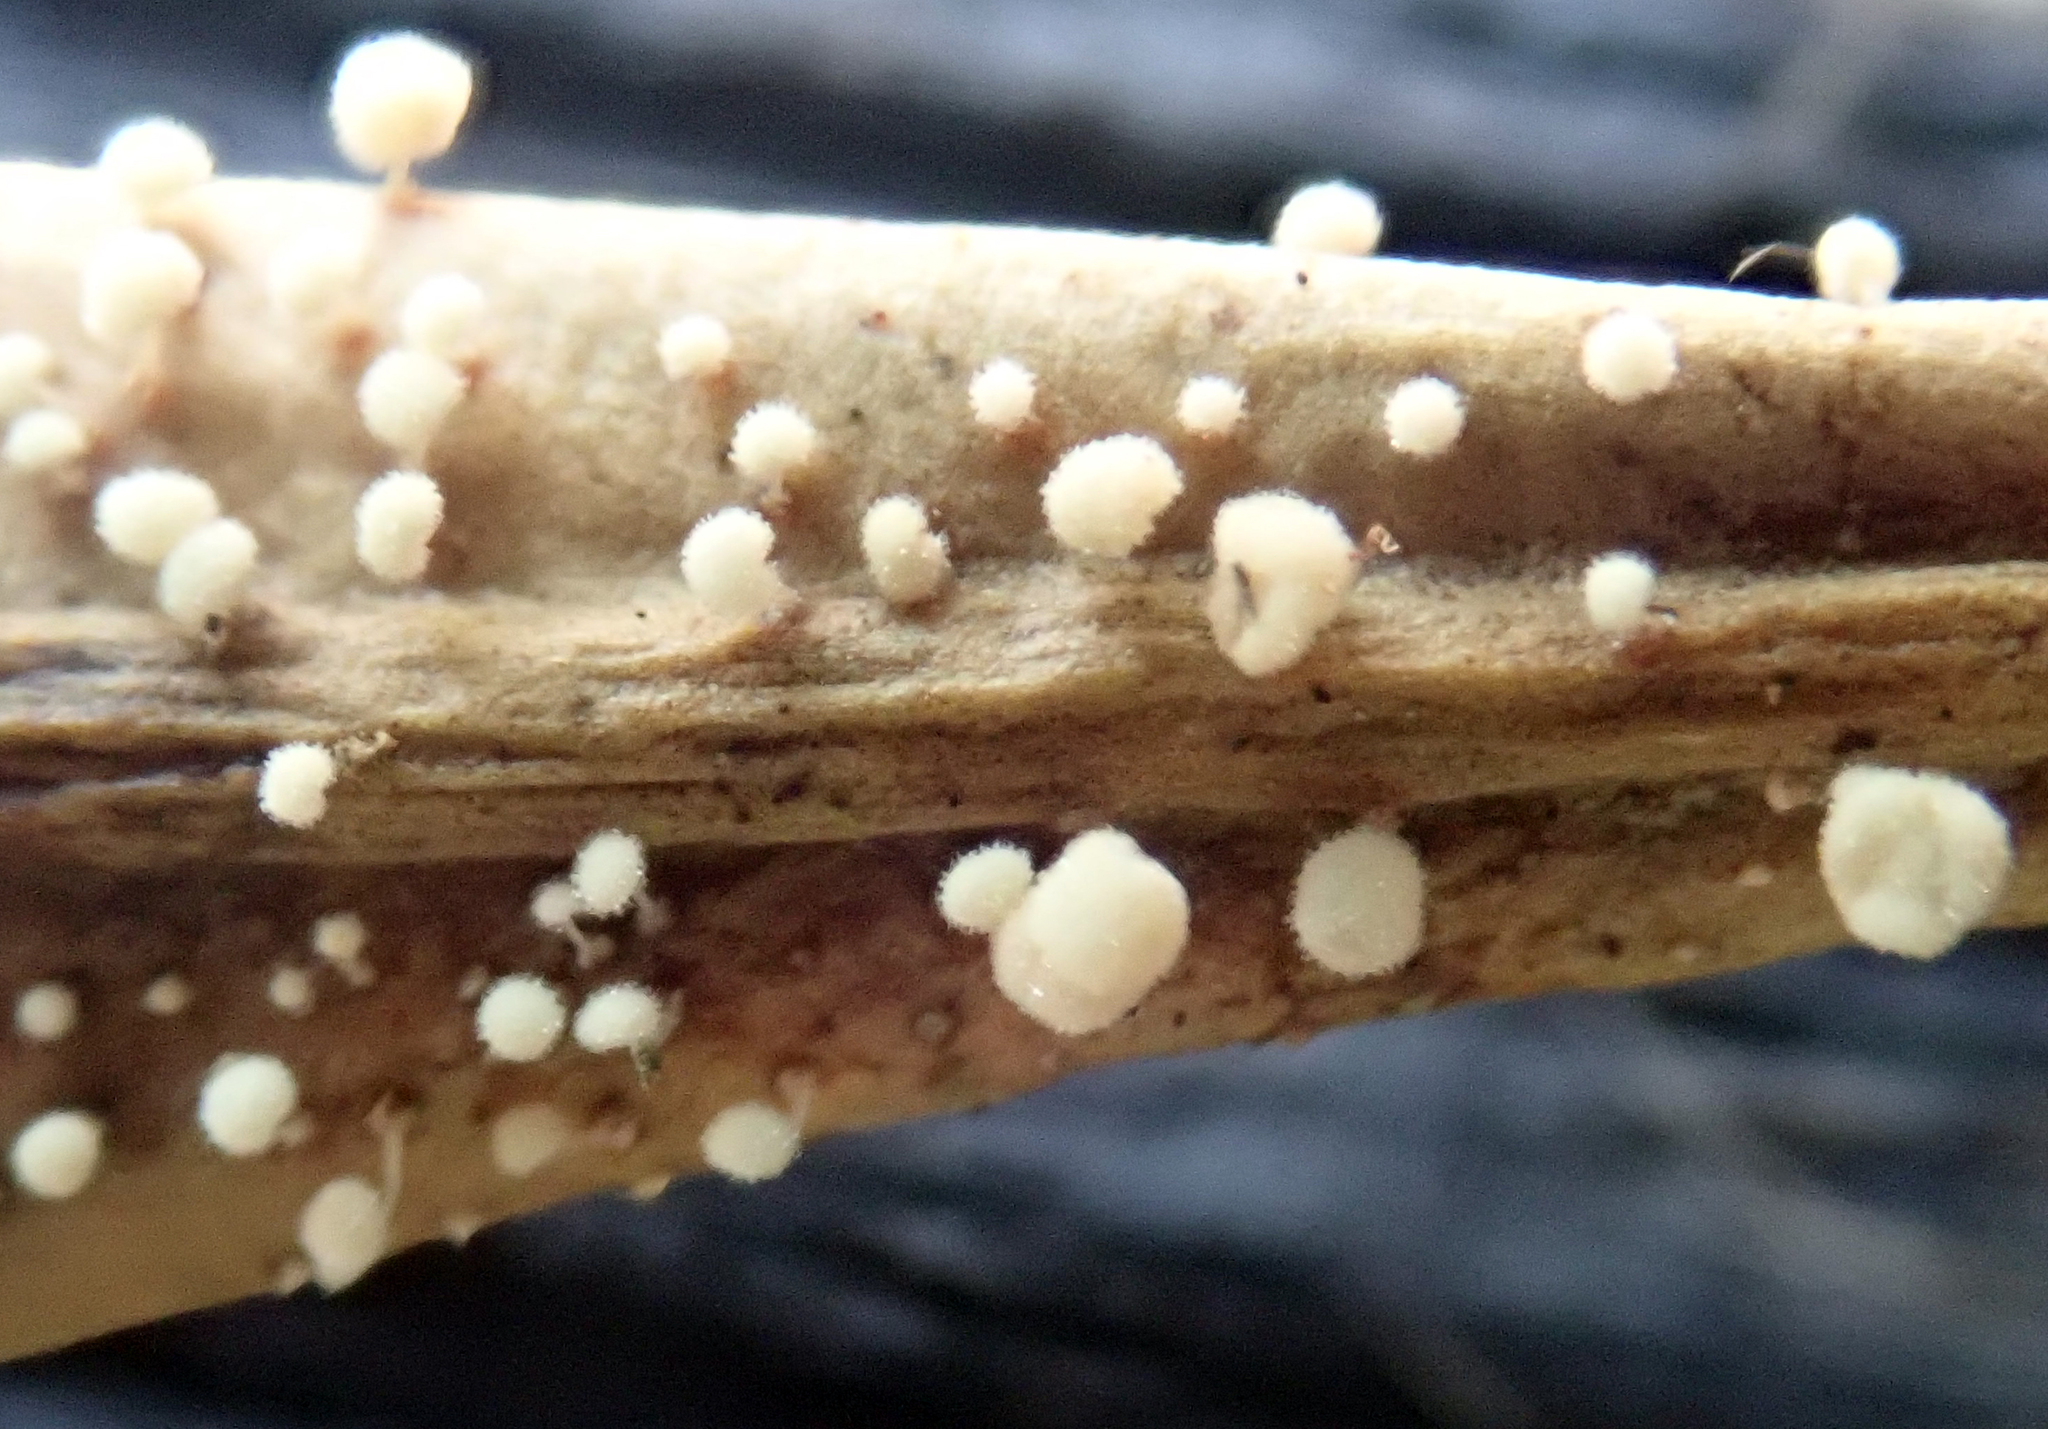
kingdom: Fungi
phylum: Basidiomycota
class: Agaricomycetes
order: Agaricales
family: Physalacriaceae
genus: Physalacria
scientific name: Physalacria stilboidea
